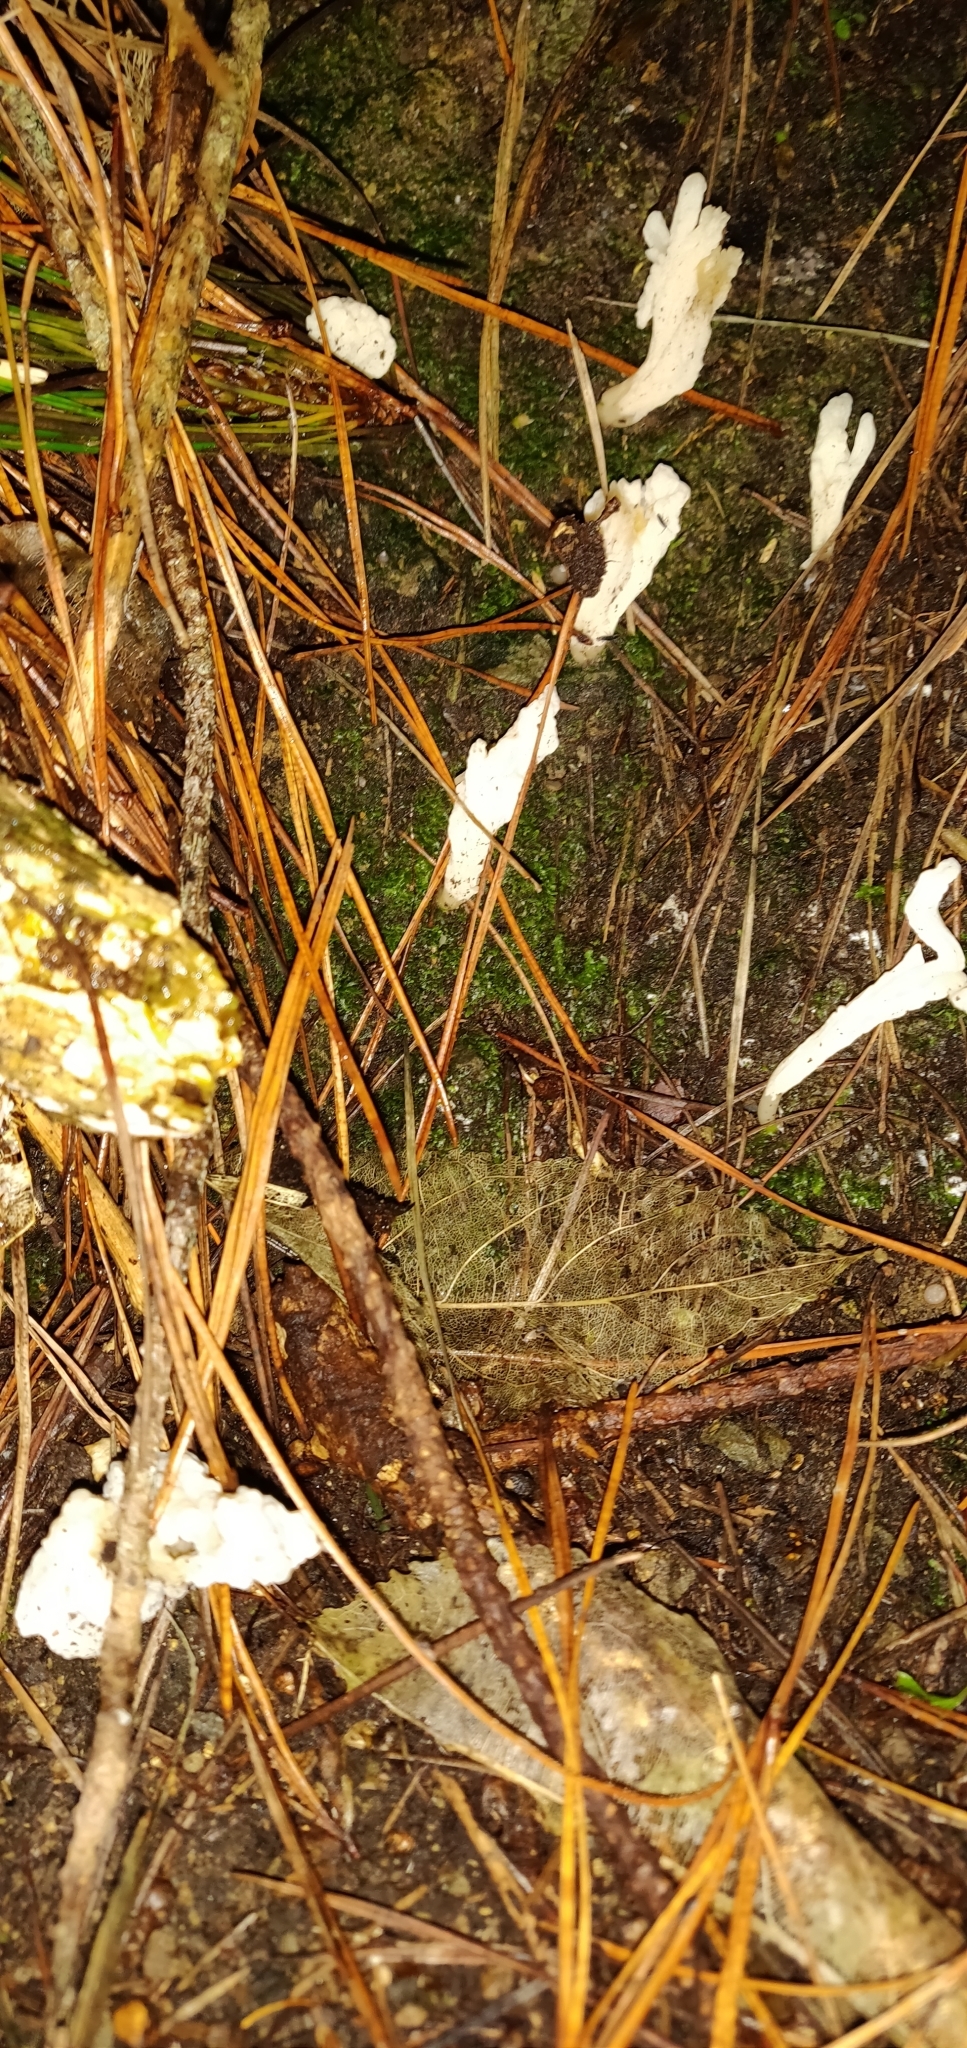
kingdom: Fungi
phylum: Basidiomycota
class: Agaricomycetes
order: Cantharellales
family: Hydnaceae
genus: Clavulina
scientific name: Clavulina rugosa
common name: Wrinkled club
